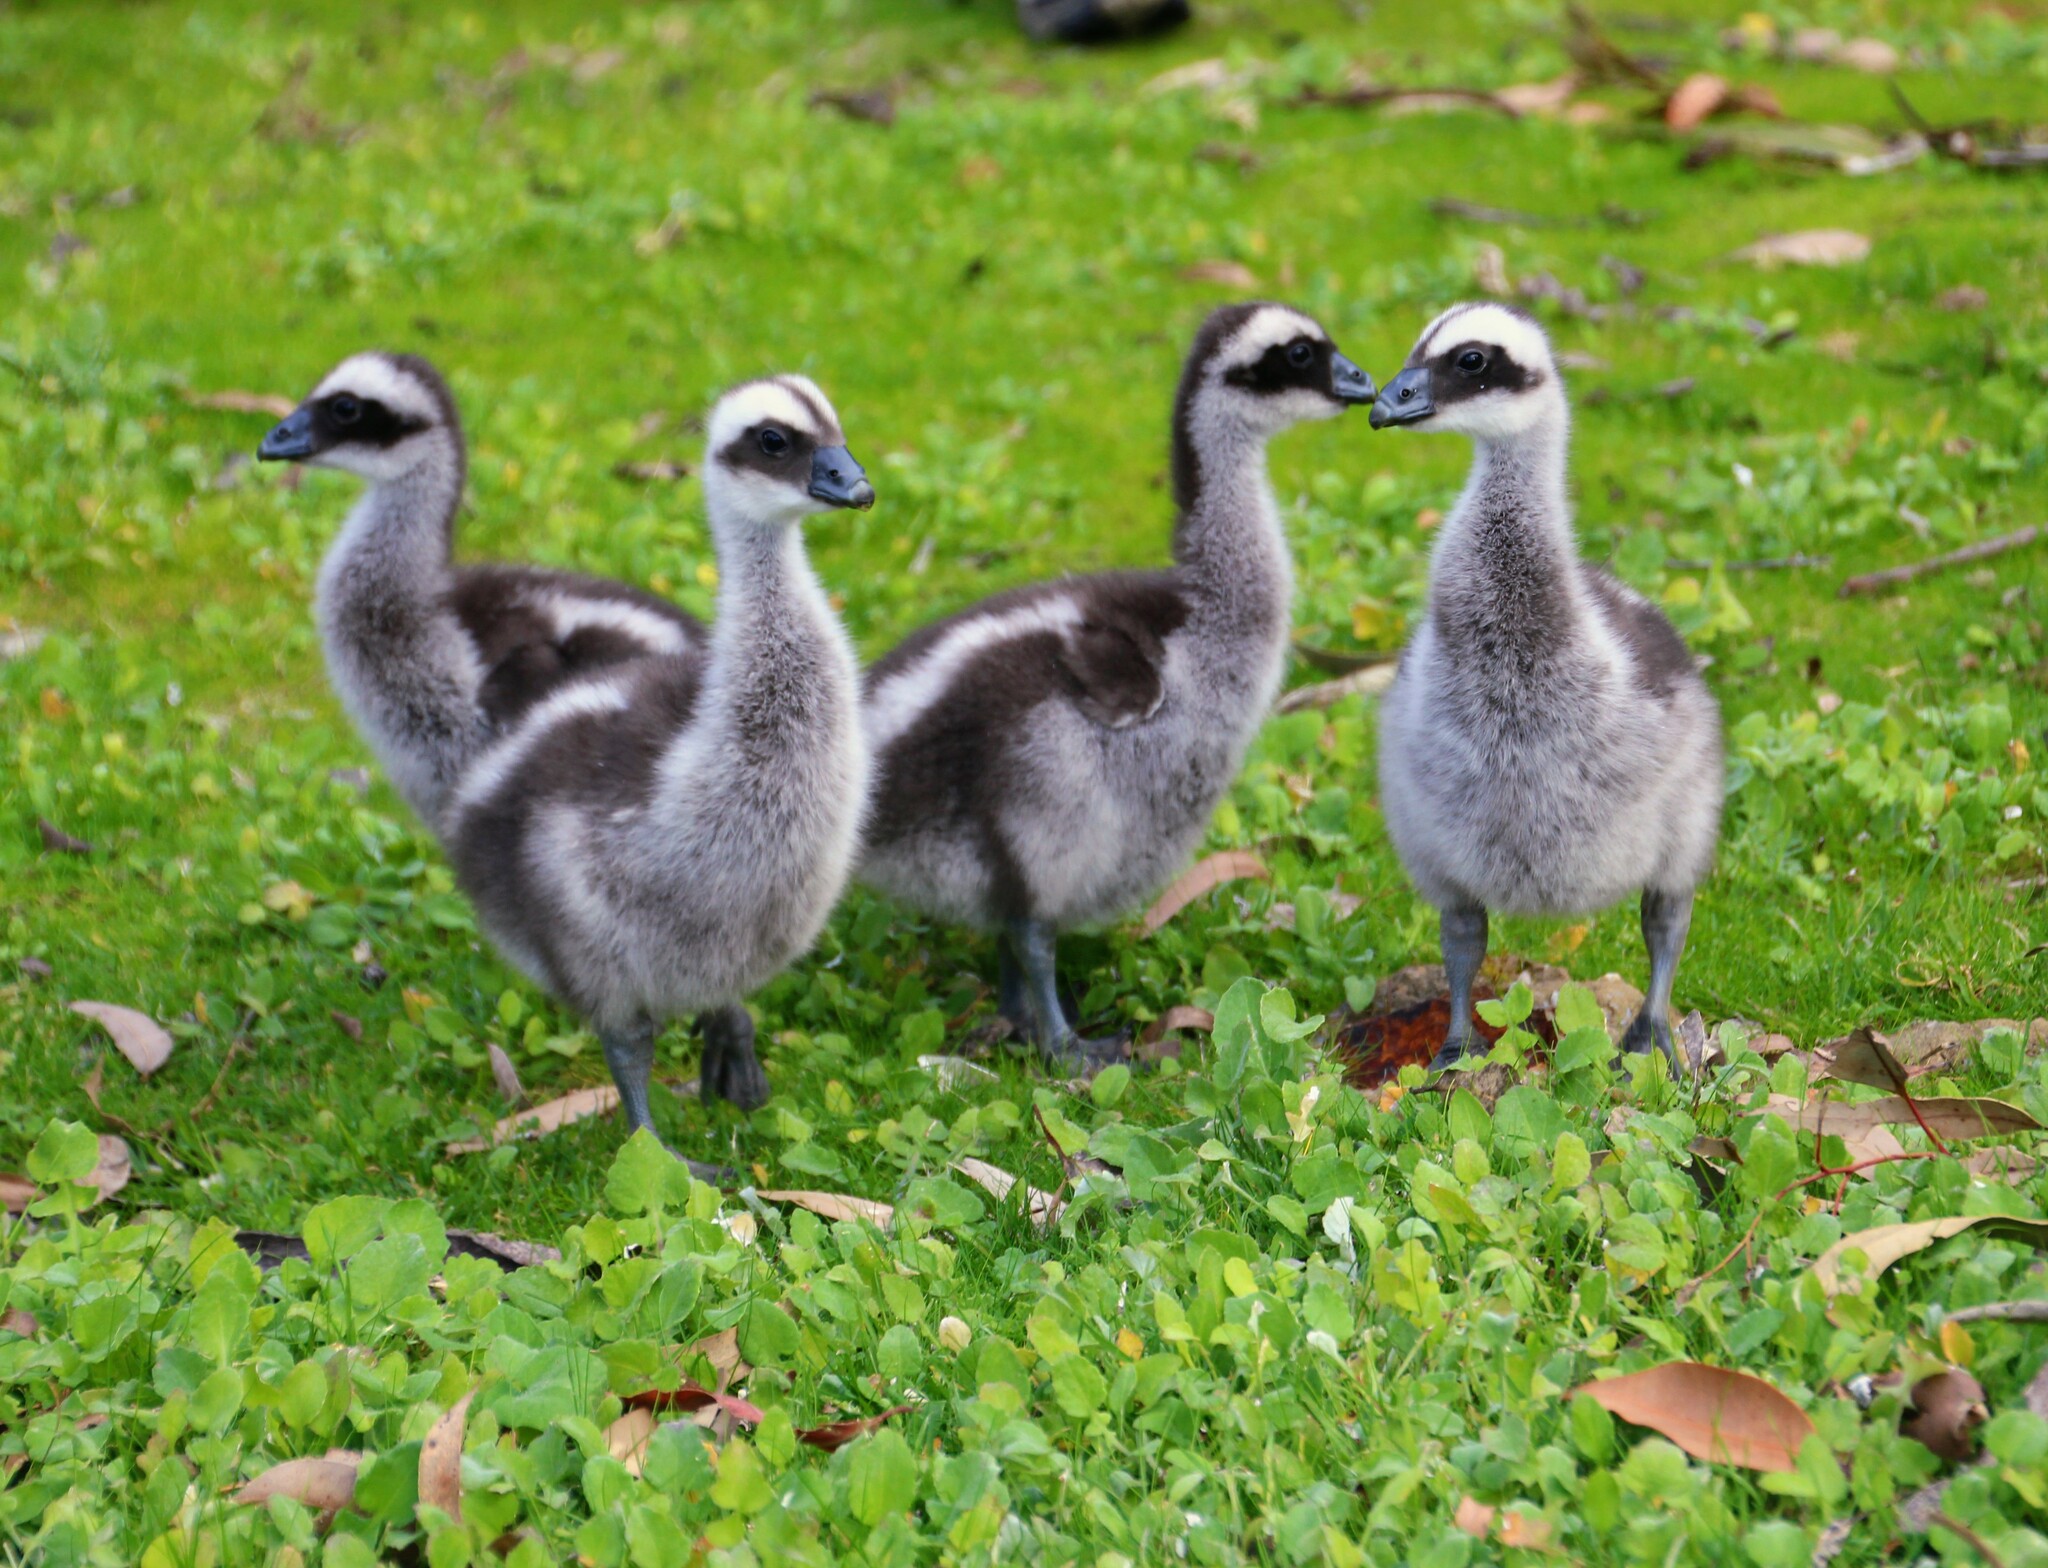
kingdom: Animalia
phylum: Chordata
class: Aves
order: Anseriformes
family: Anatidae
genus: Cereopsis
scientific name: Cereopsis novaehollandiae
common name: Cape barren goose
